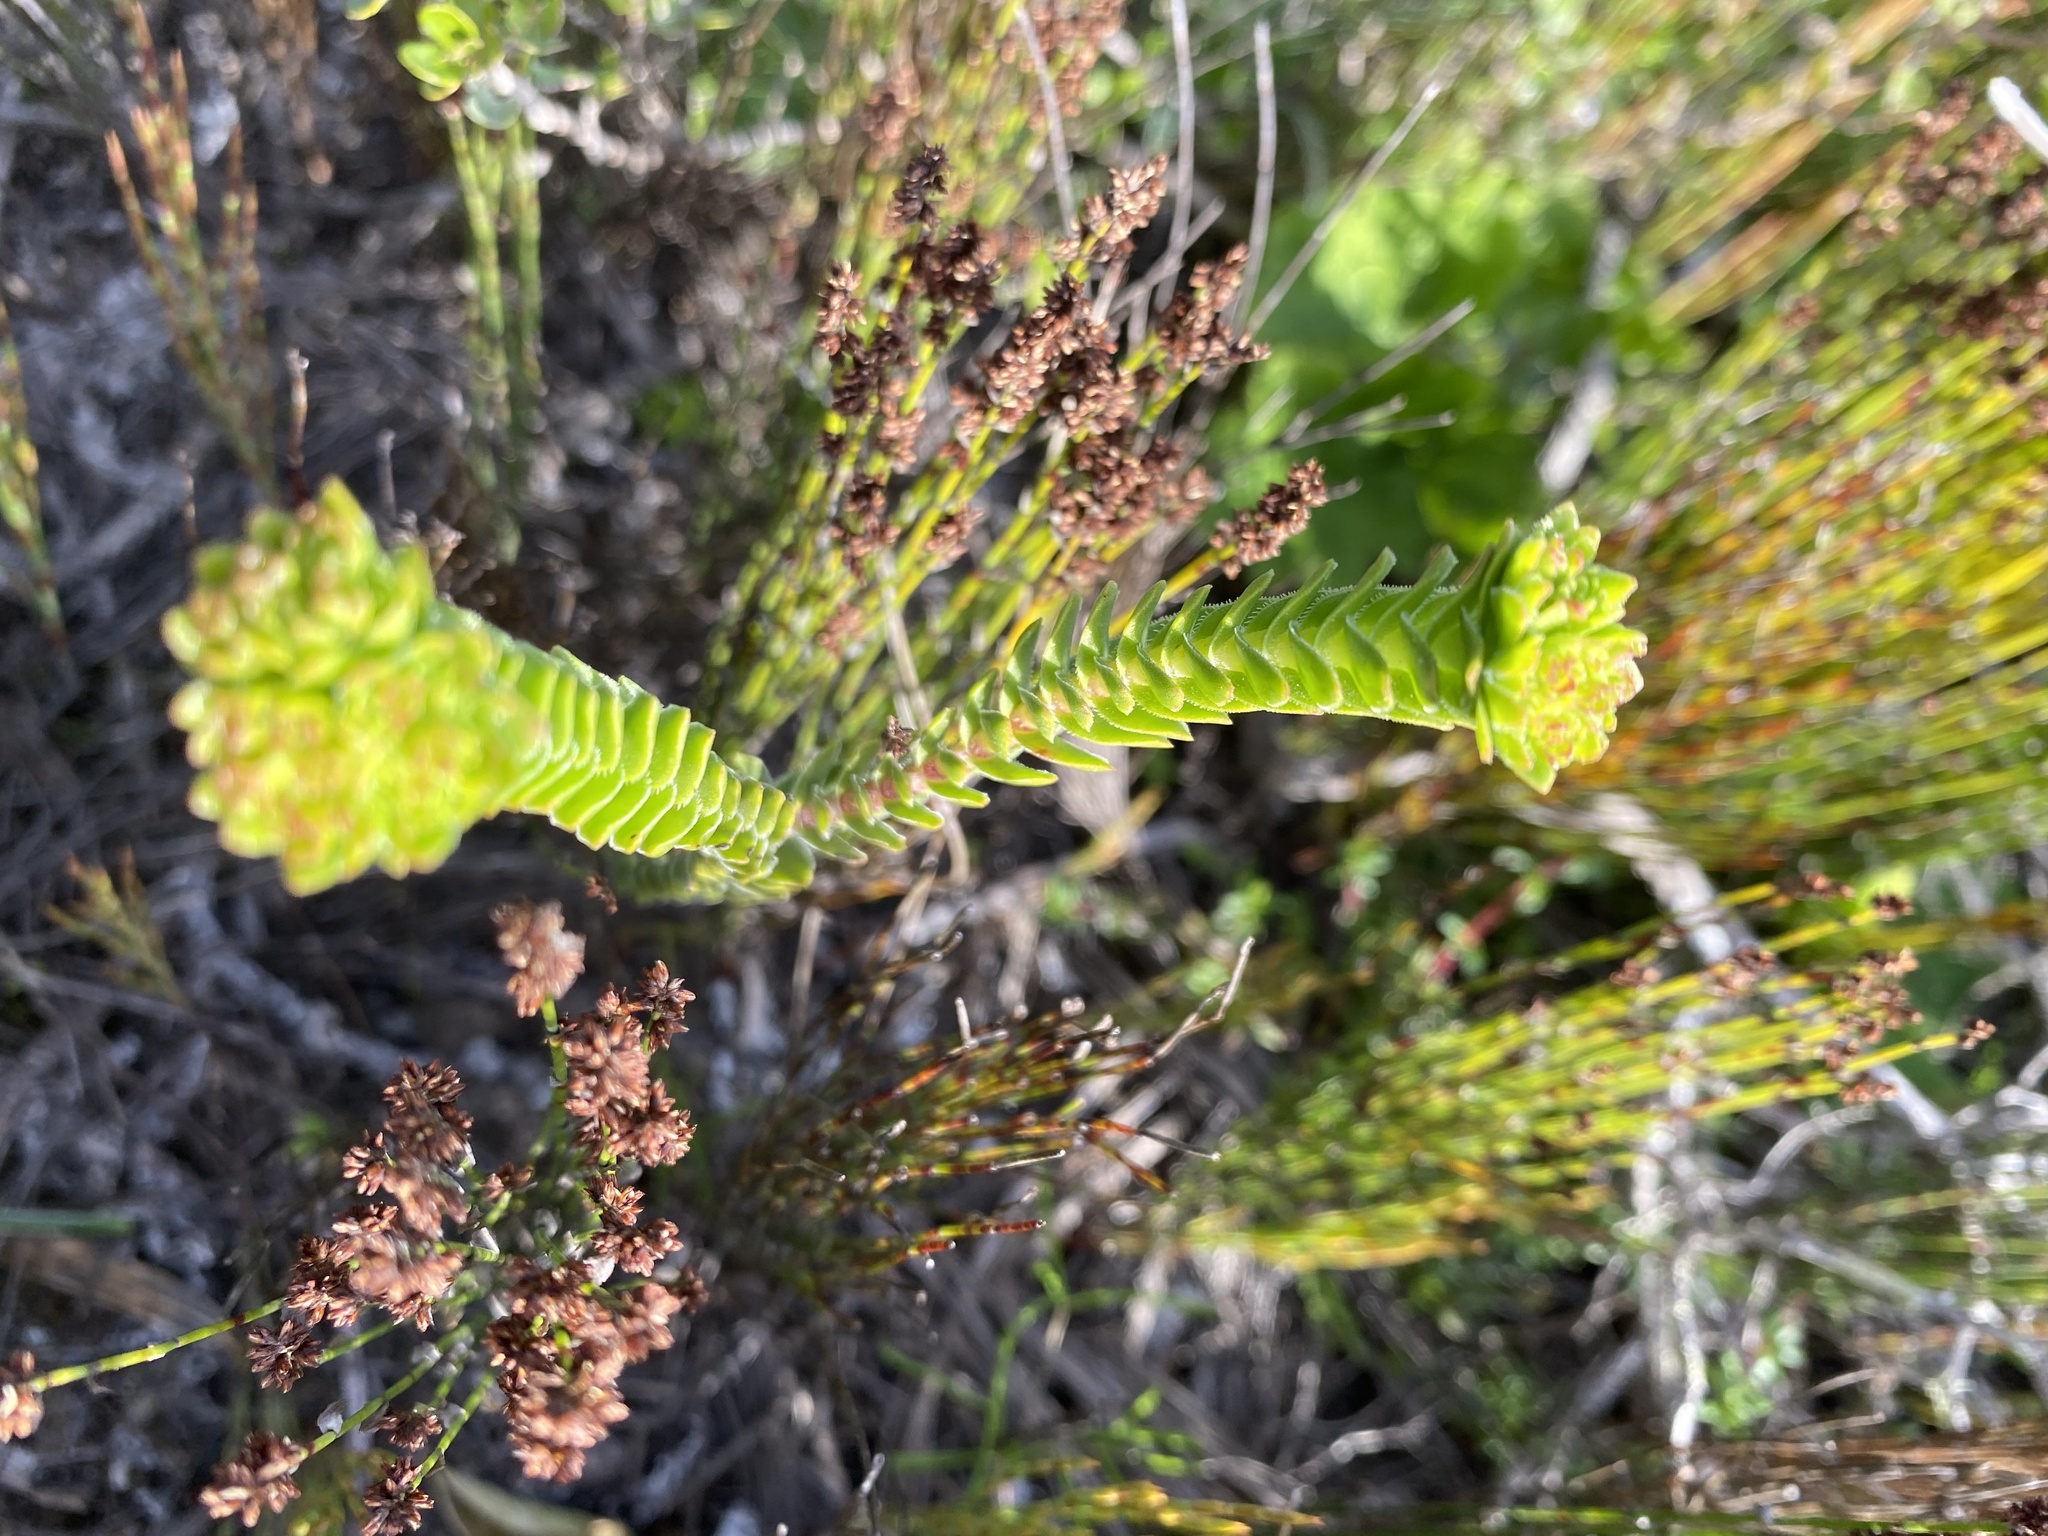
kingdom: Plantae
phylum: Tracheophyta
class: Magnoliopsida
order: Saxifragales
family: Crassulaceae
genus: Crassula
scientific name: Crassula subulata
